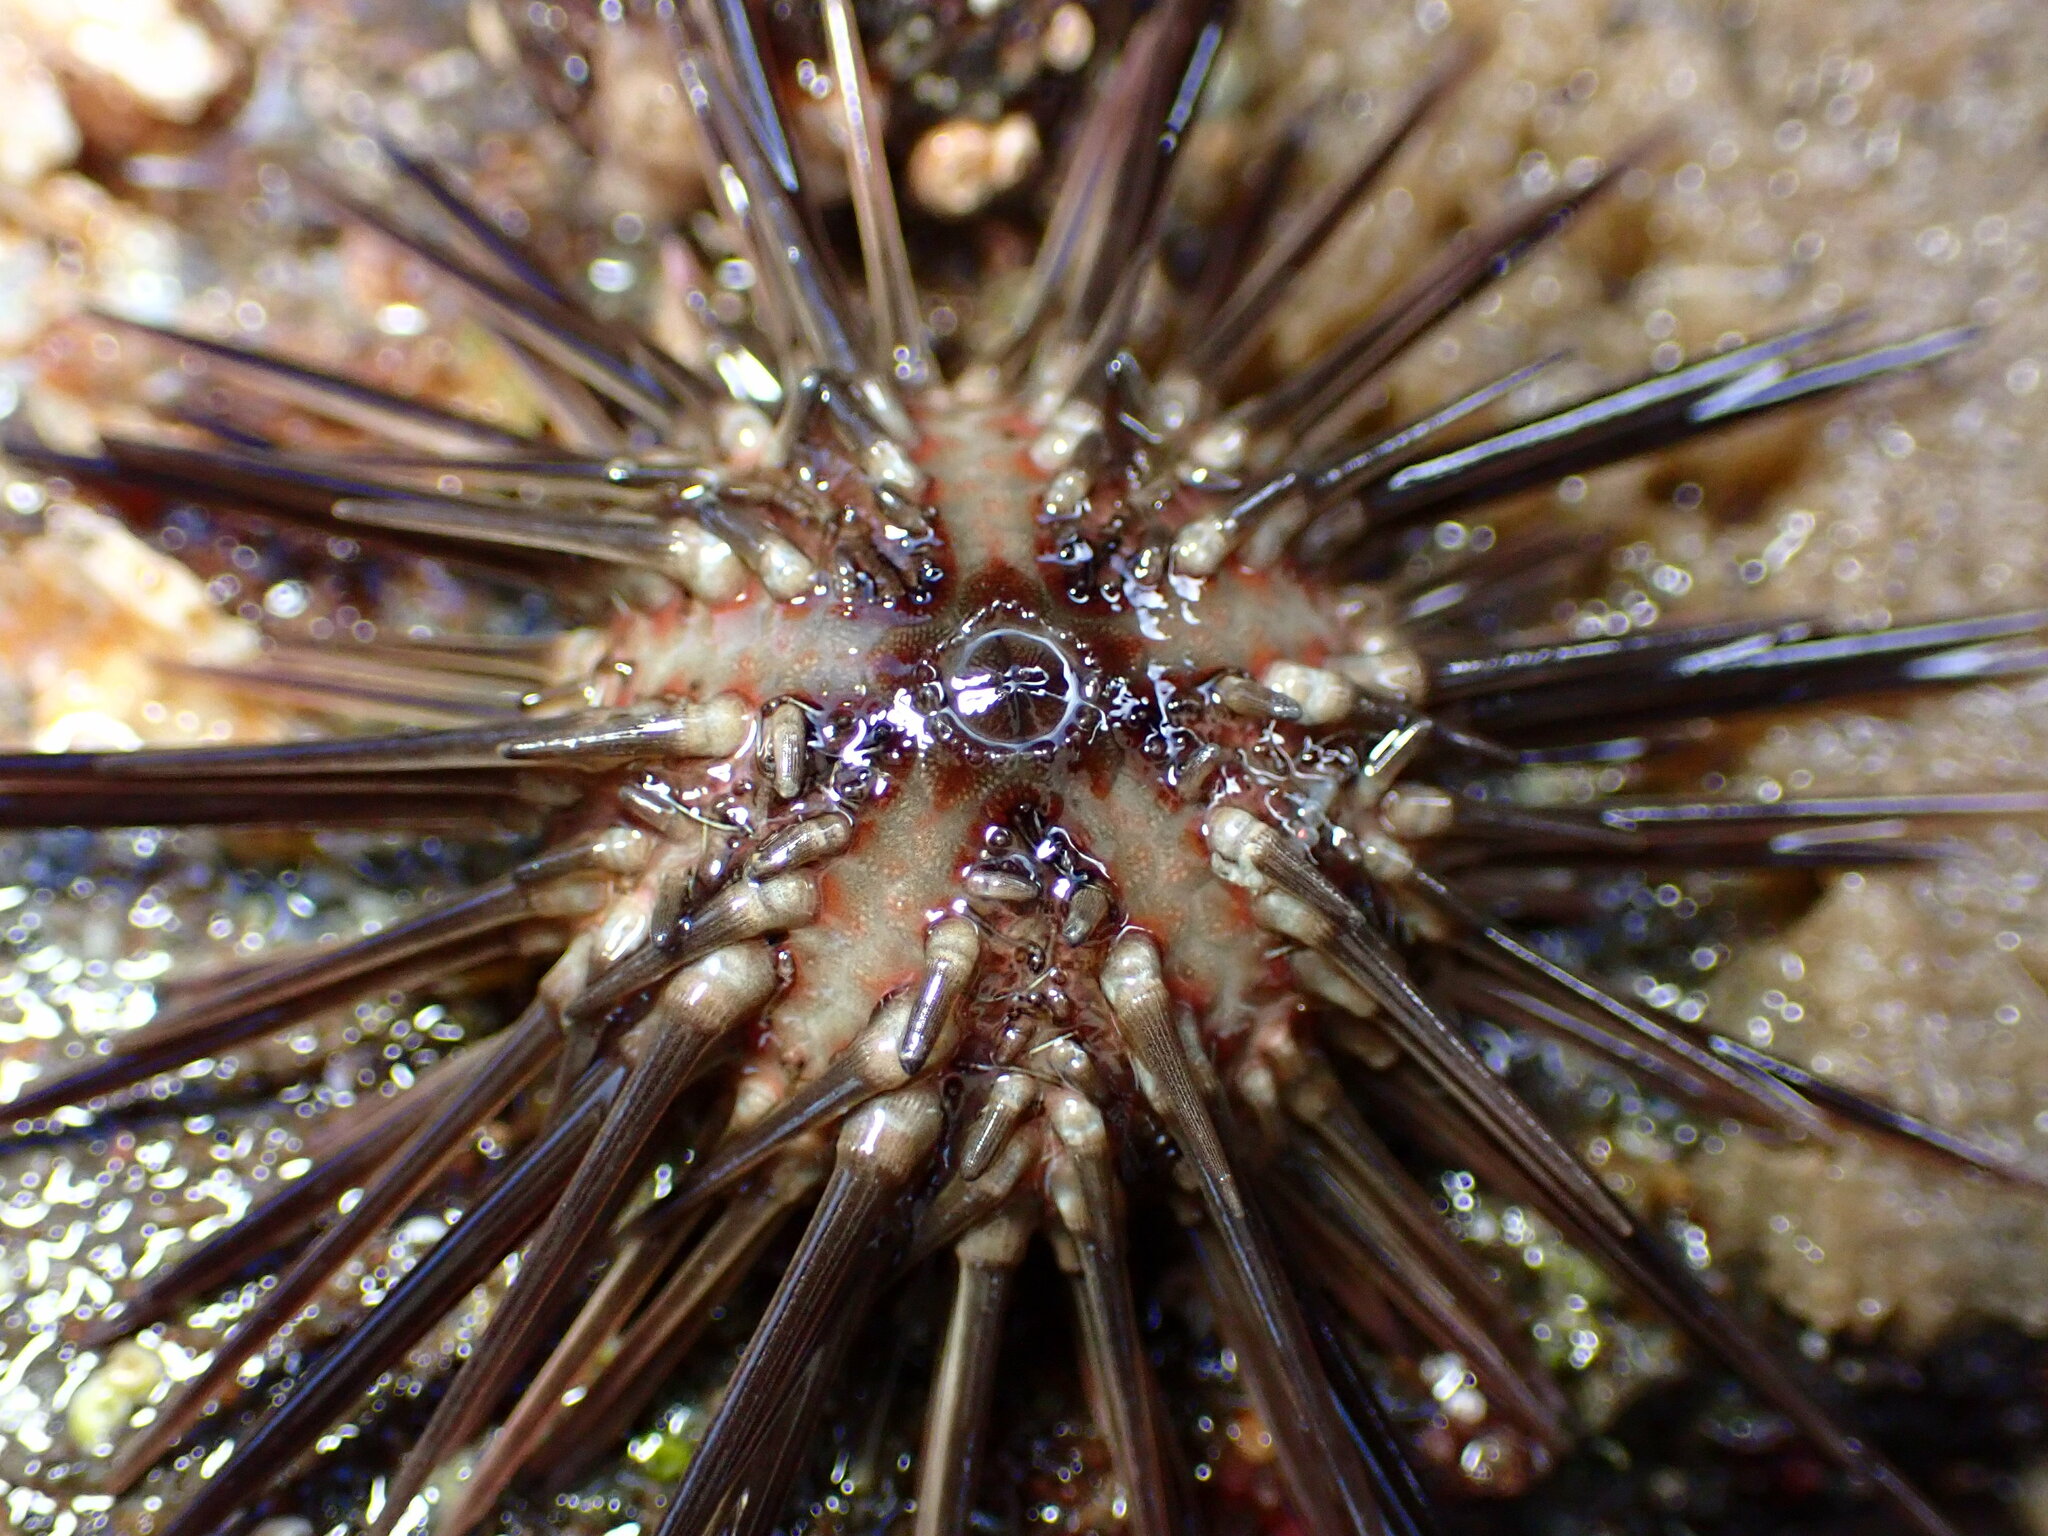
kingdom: Animalia
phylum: Echinodermata
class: Echinoidea
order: Arbacioida
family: Arbaciidae
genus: Arbacia
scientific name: Arbacia stellata
